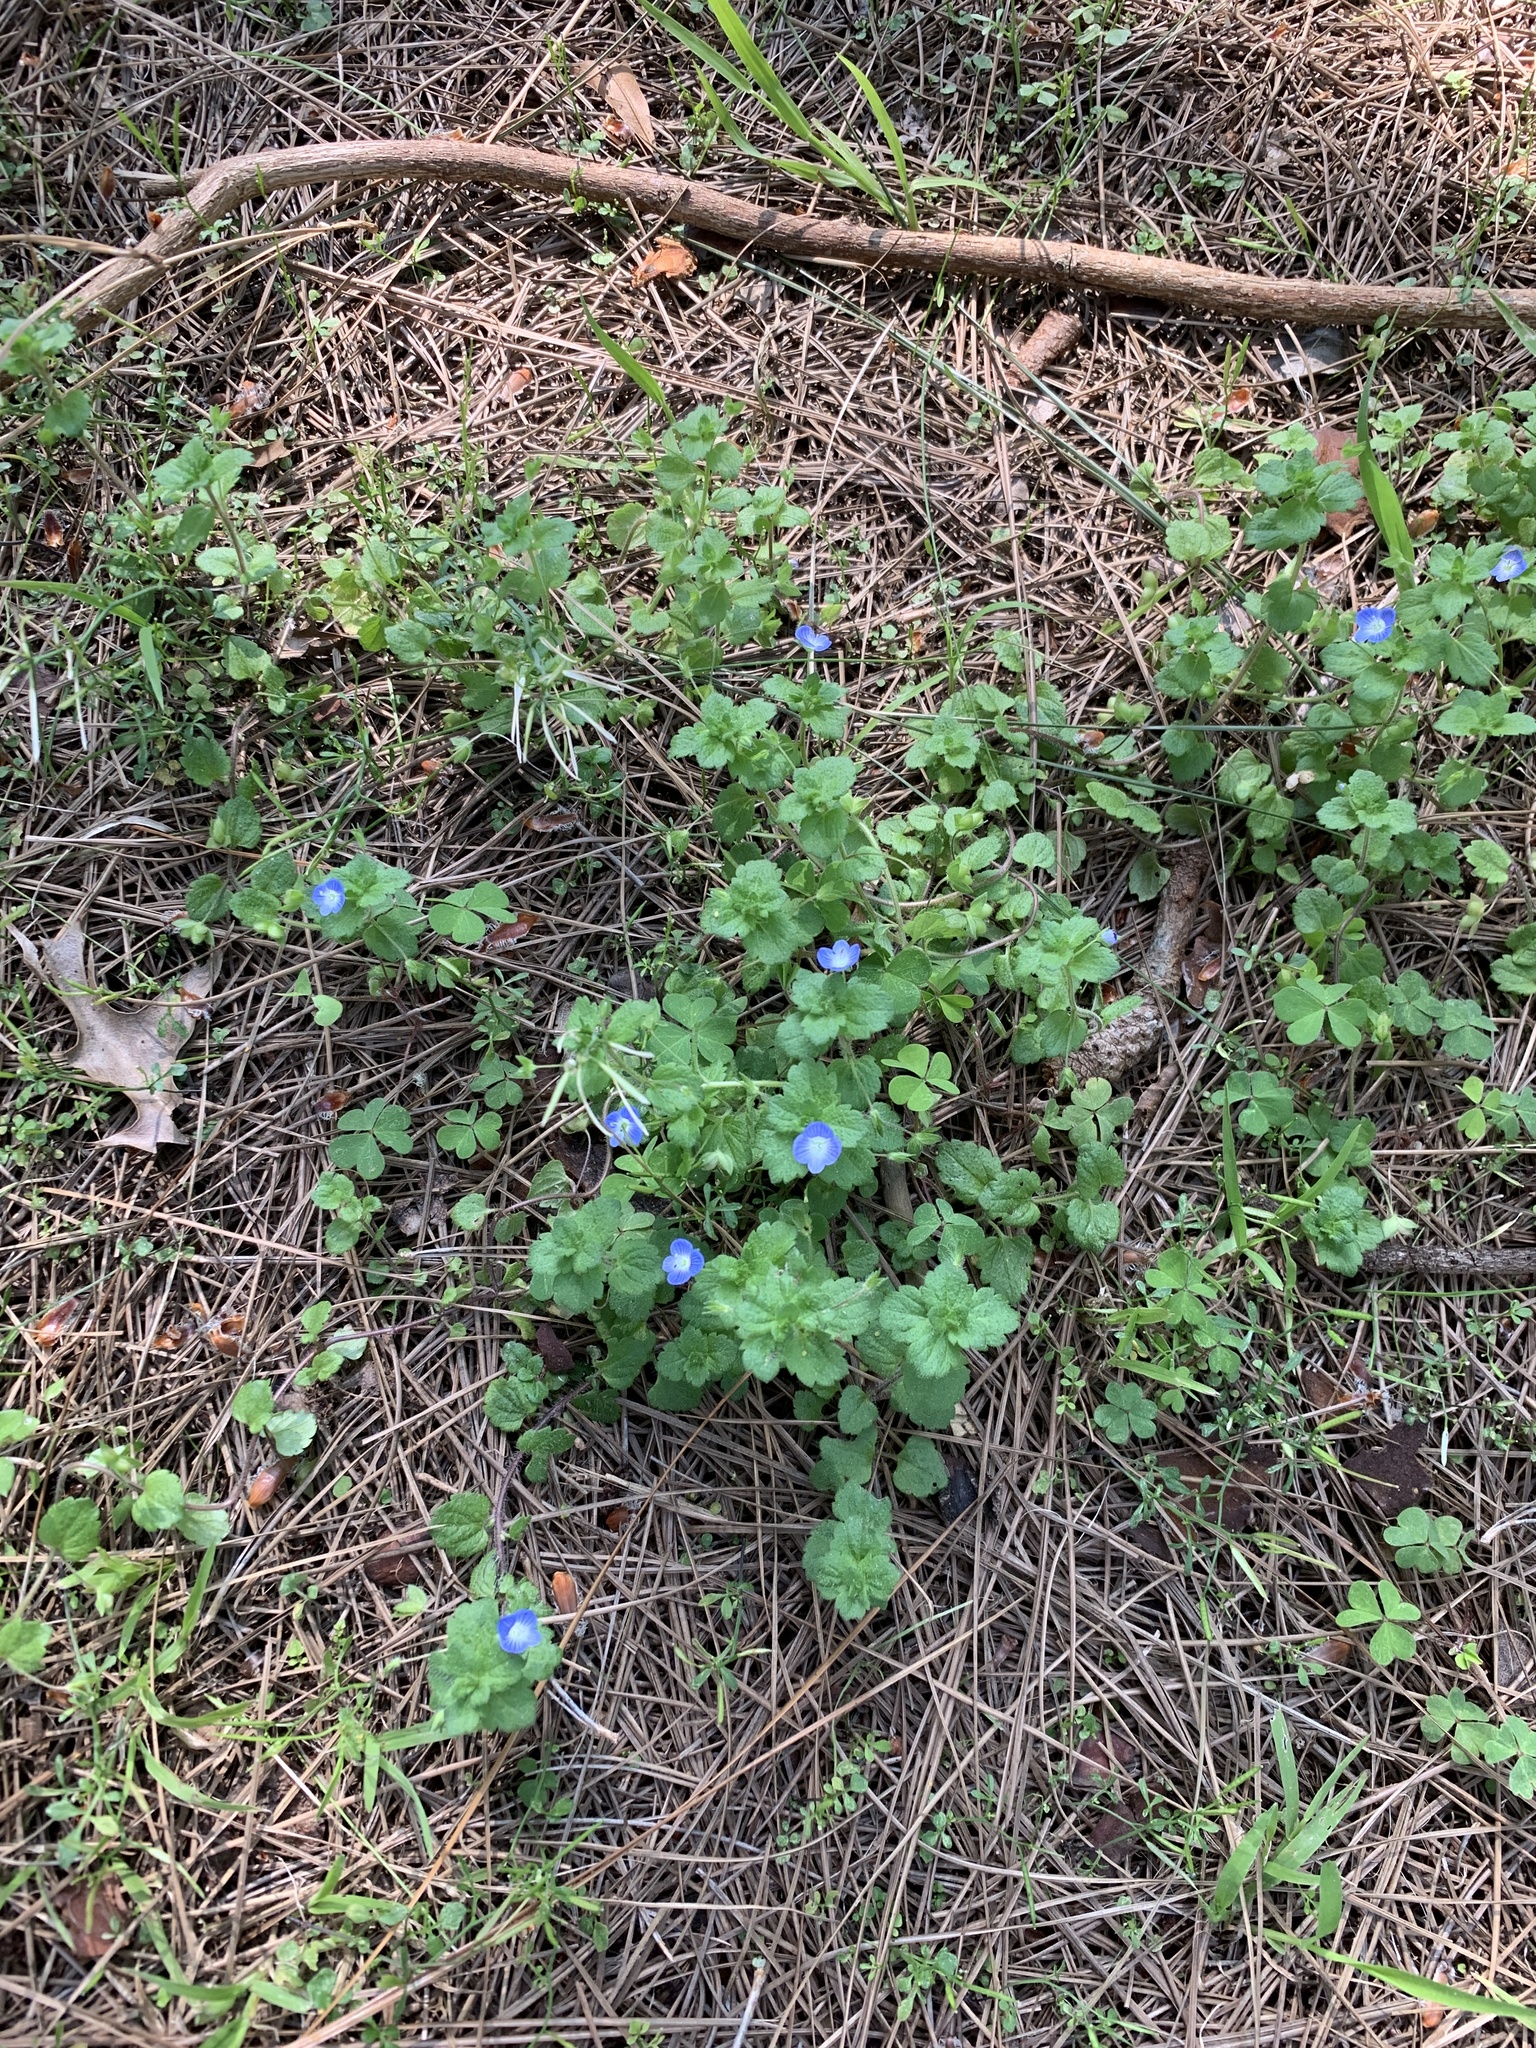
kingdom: Plantae
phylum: Tracheophyta
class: Magnoliopsida
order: Lamiales
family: Plantaginaceae
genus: Veronica
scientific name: Veronica persica
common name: Common field-speedwell
